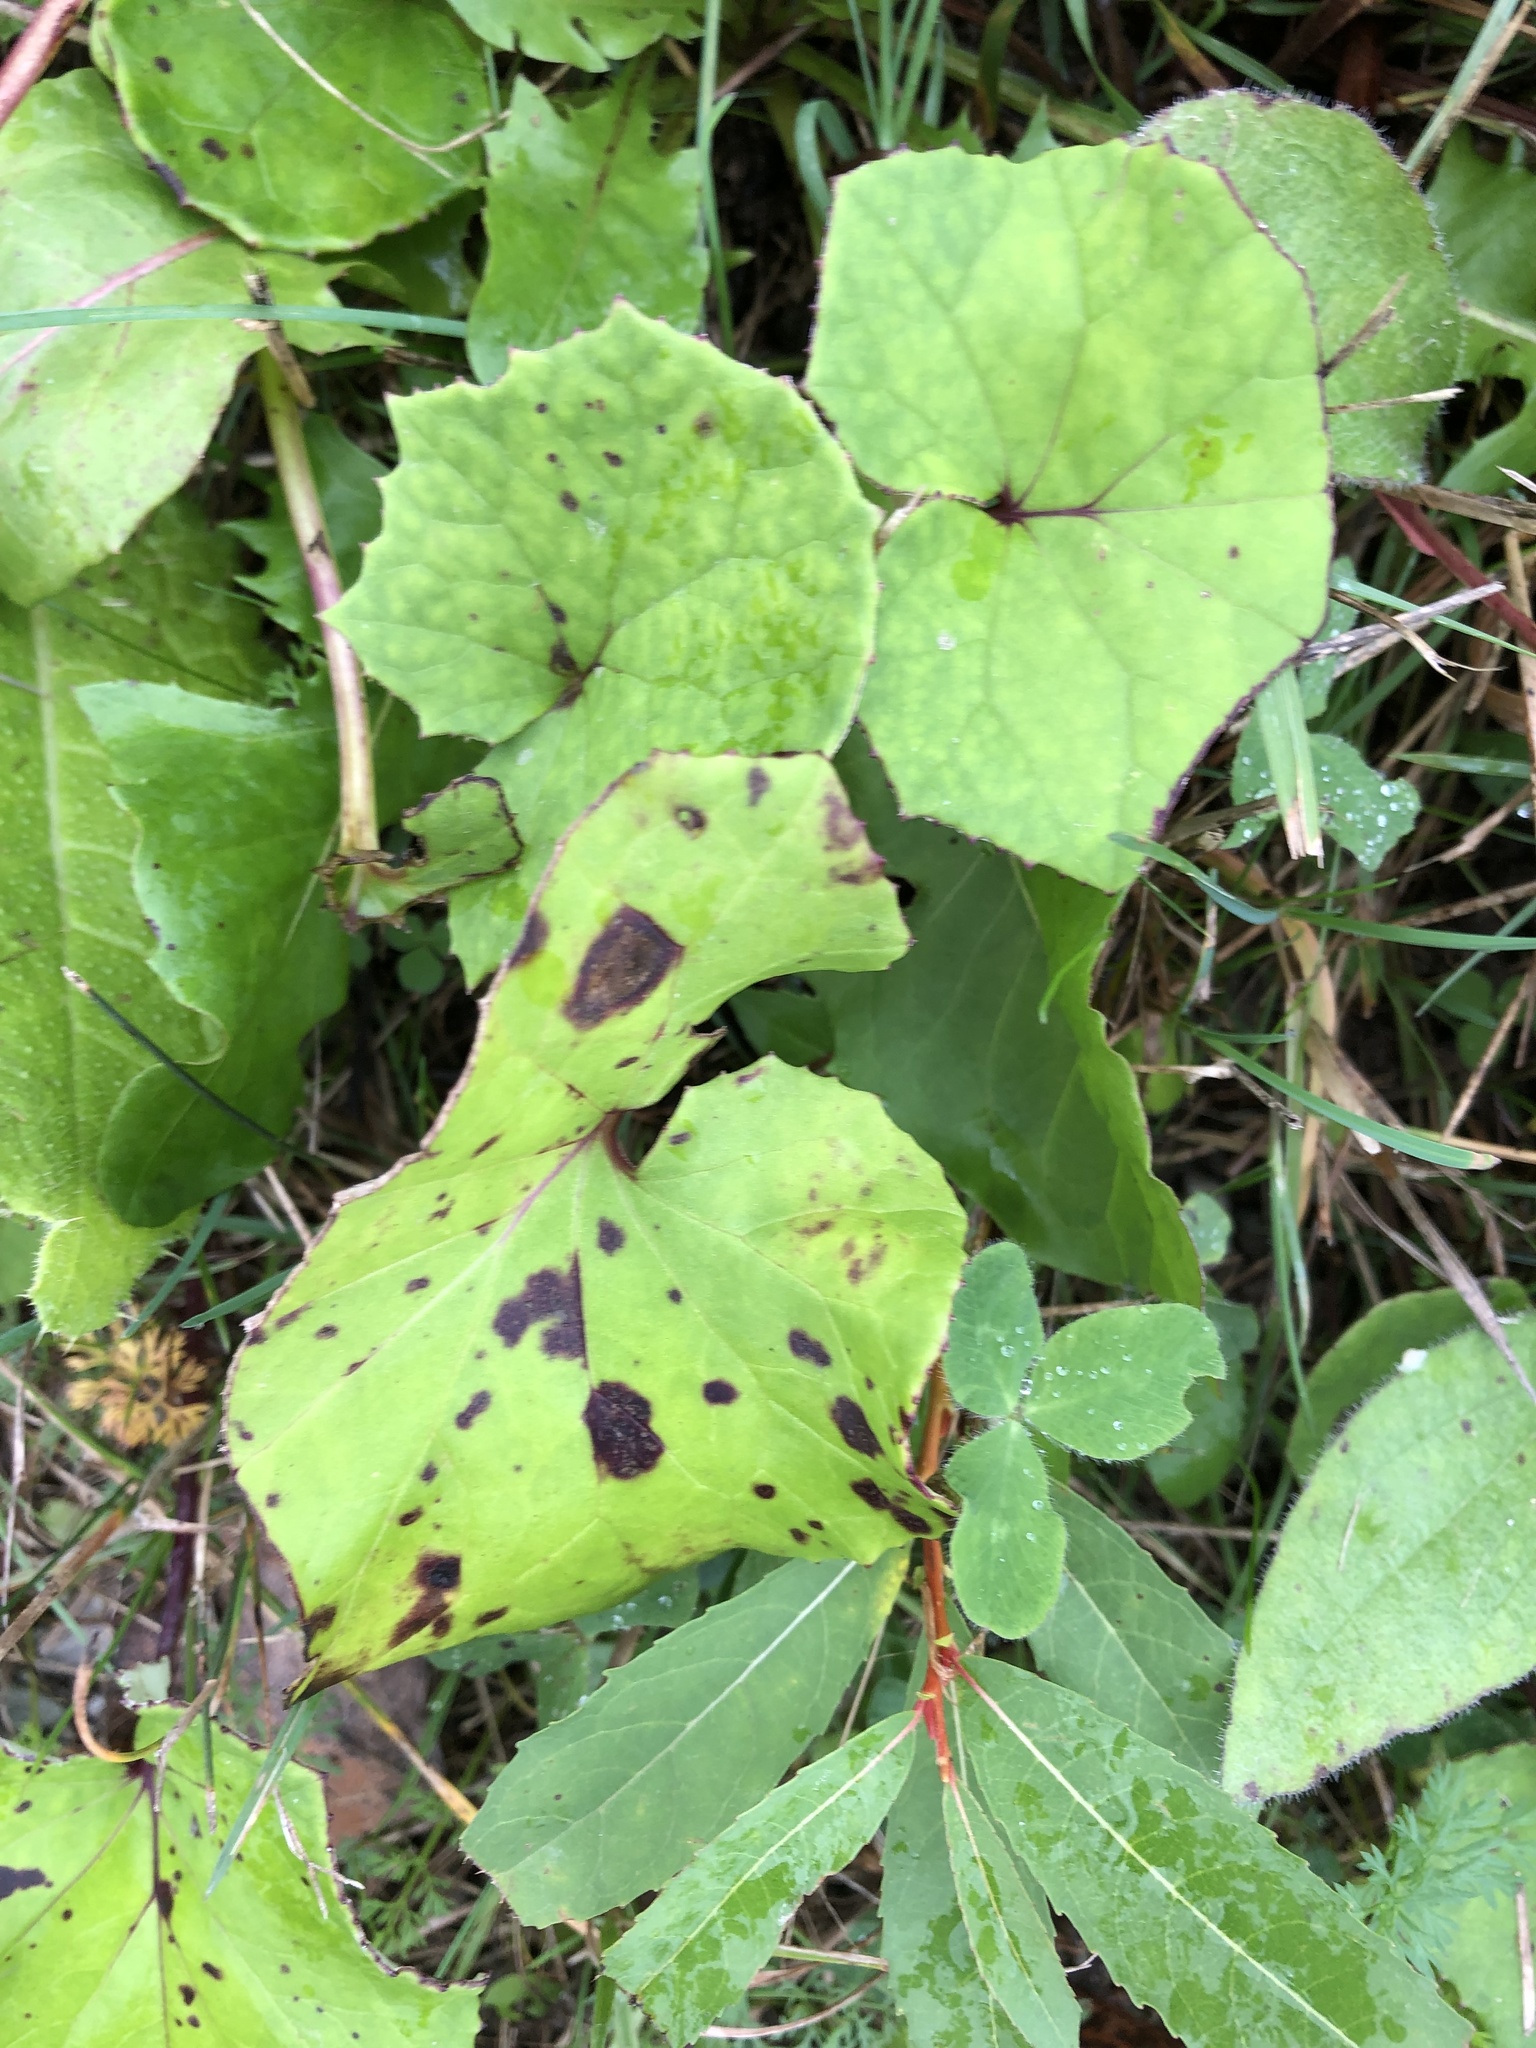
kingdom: Plantae
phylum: Tracheophyta
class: Magnoliopsida
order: Asterales
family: Asteraceae
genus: Tussilago
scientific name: Tussilago farfara
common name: Coltsfoot
